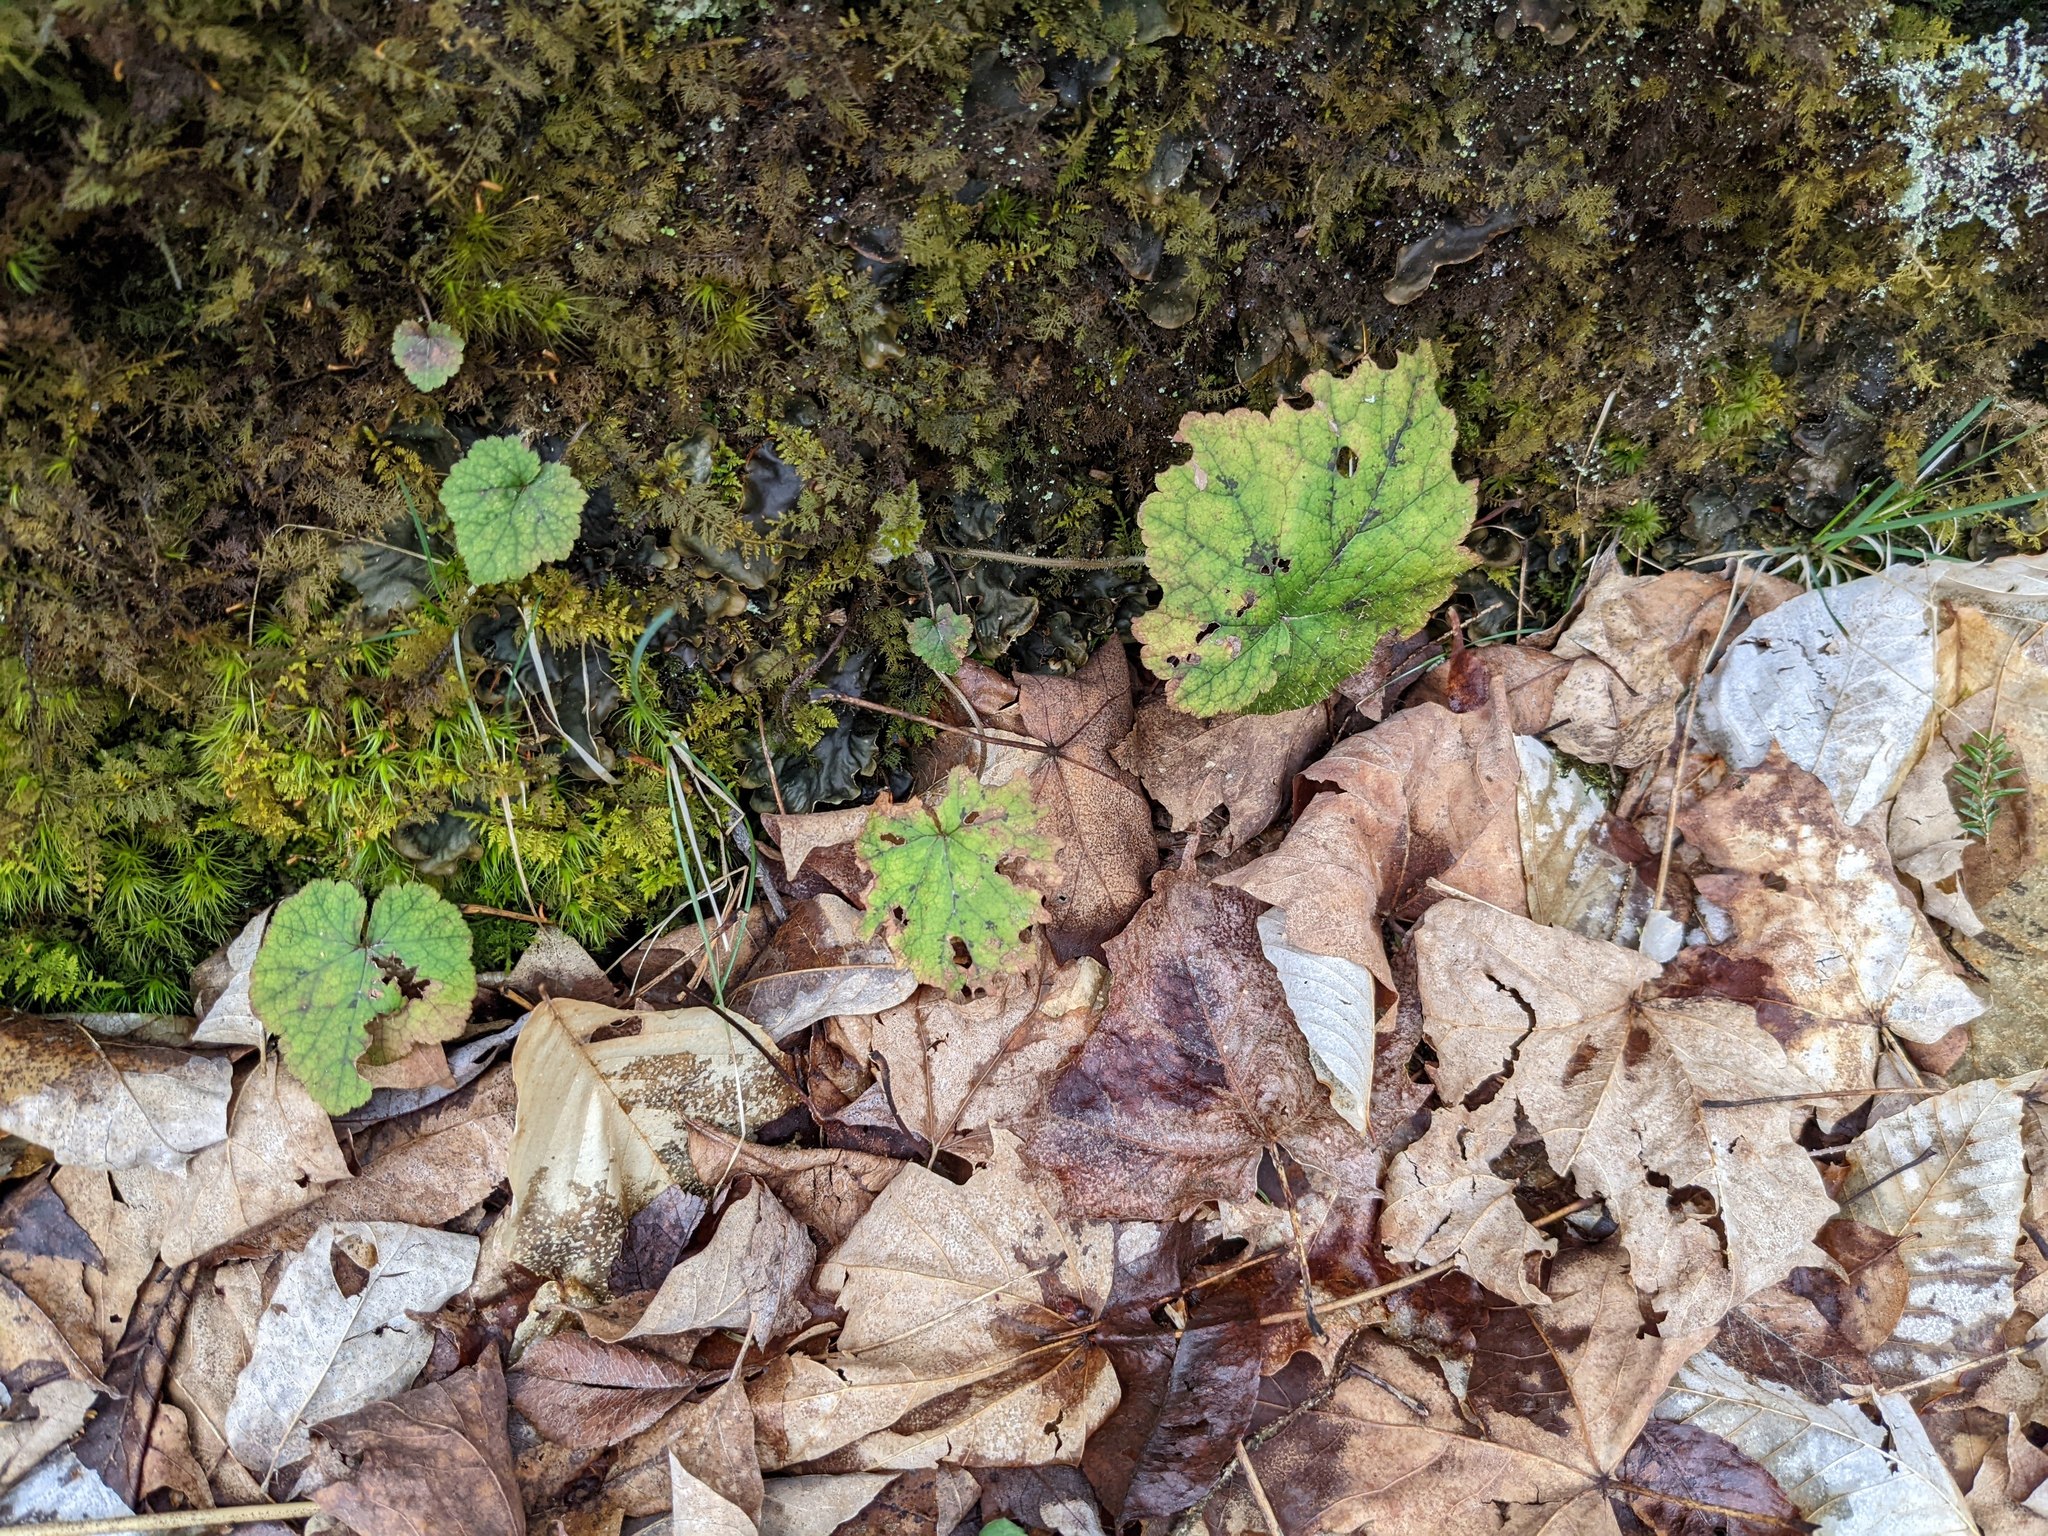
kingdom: Plantae
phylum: Tracheophyta
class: Magnoliopsida
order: Saxifragales
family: Saxifragaceae
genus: Tiarella
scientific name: Tiarella stolonifera
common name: Stoloniferous foamflower
